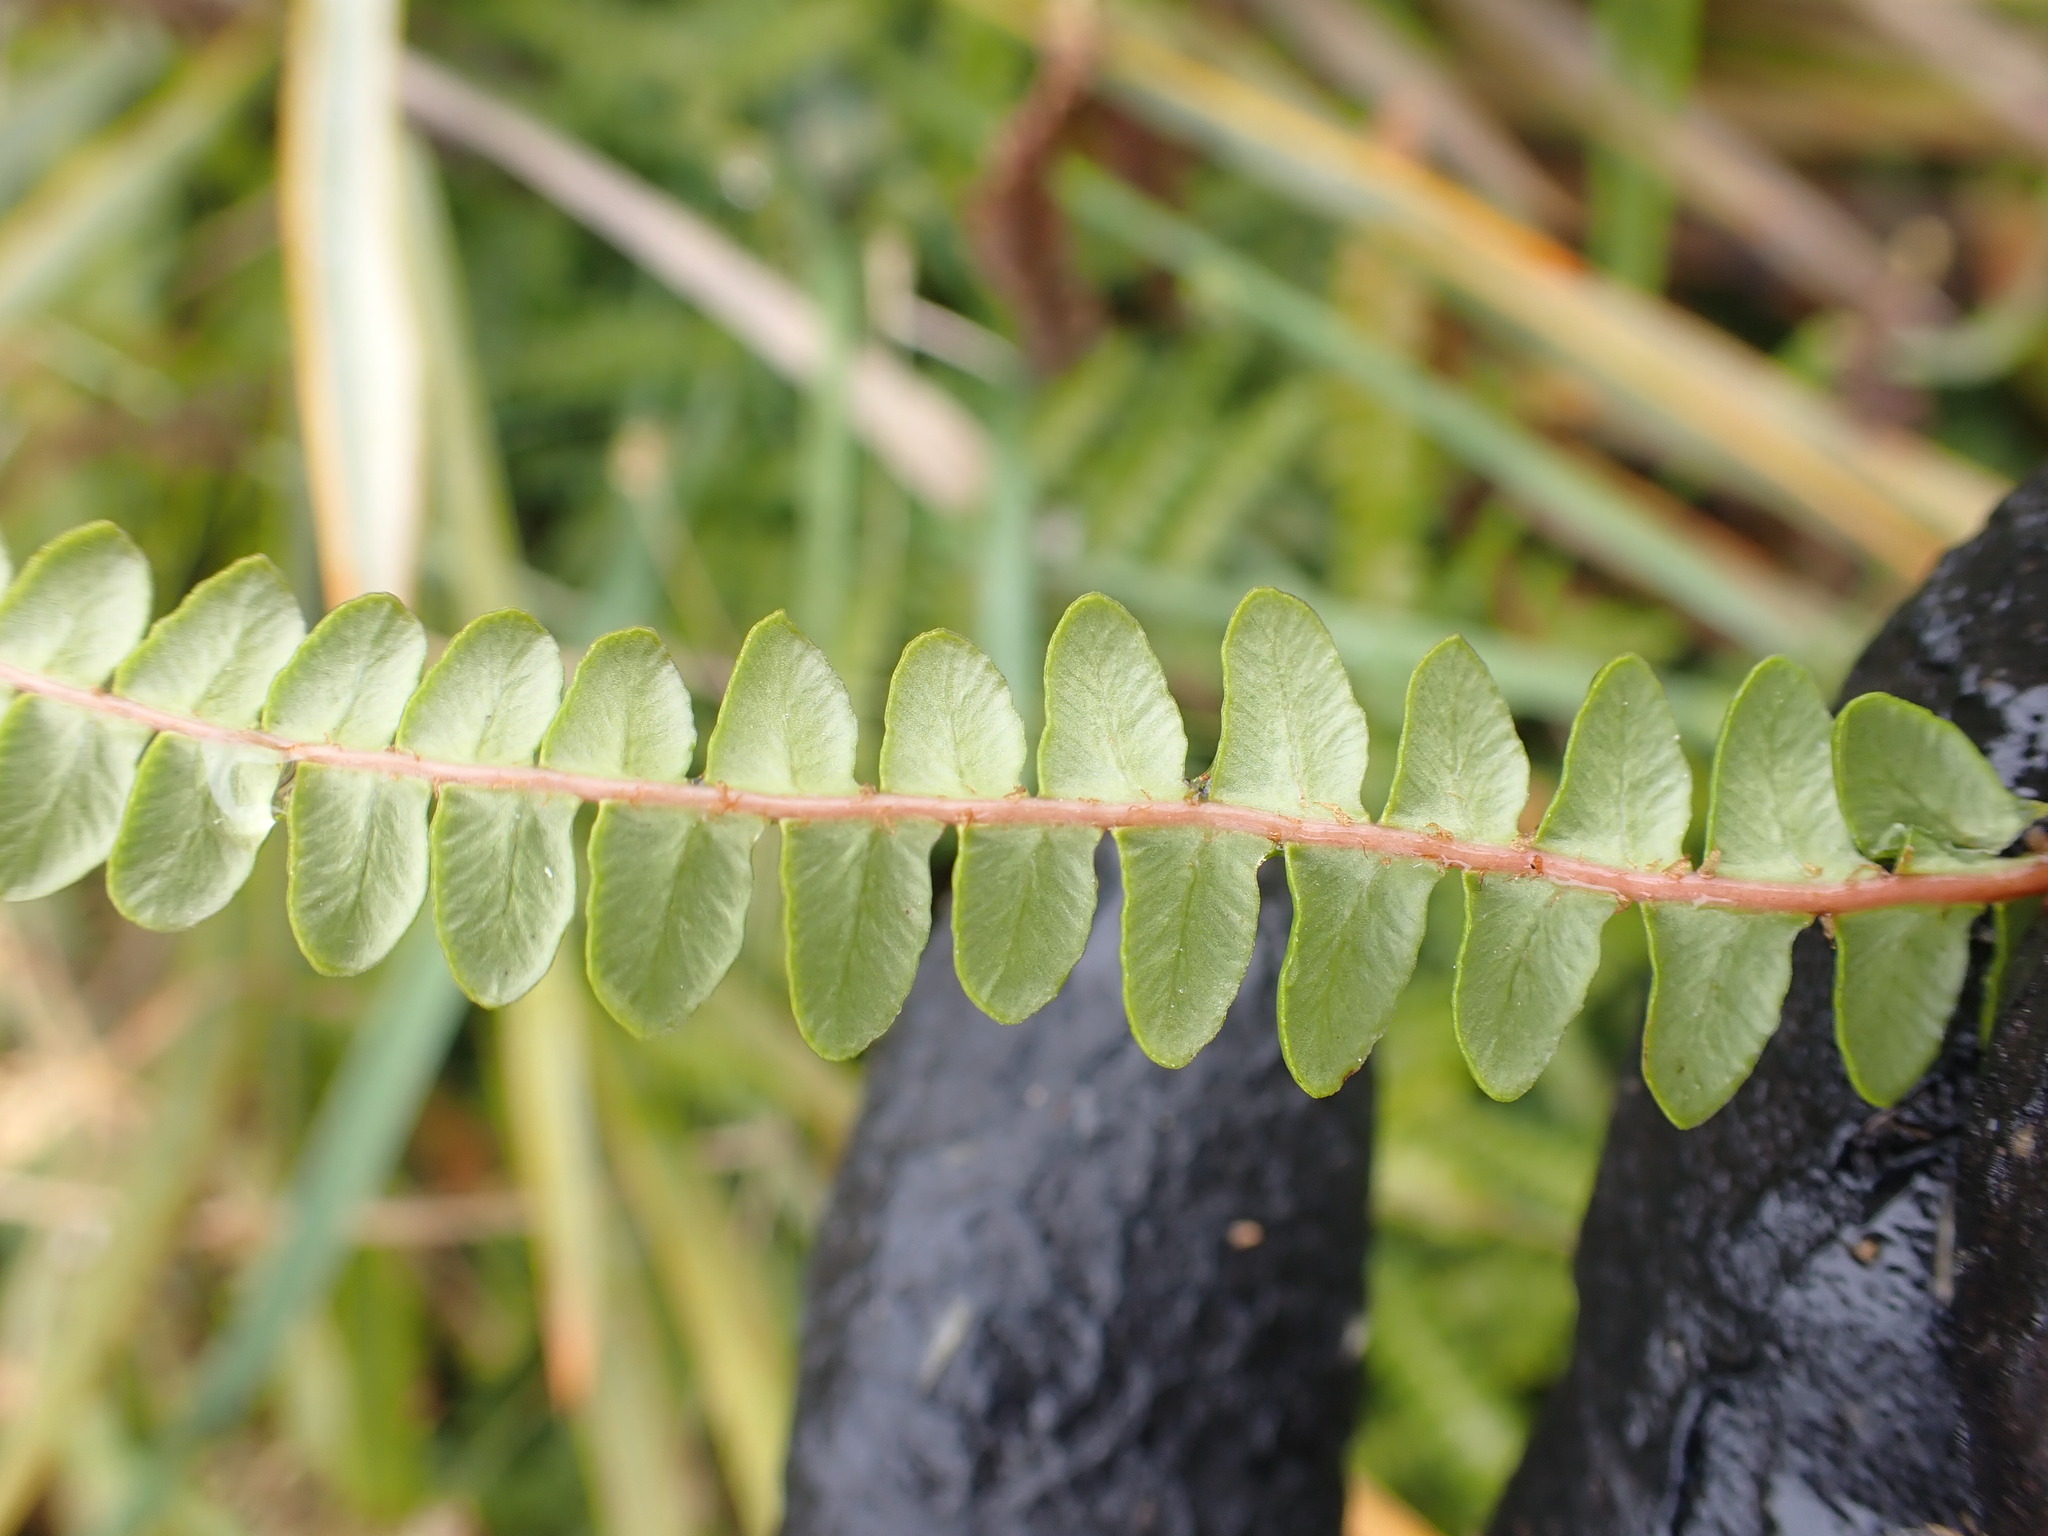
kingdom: Plantae
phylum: Tracheophyta
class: Polypodiopsida
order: Polypodiales
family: Blechnaceae
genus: Austroblechnum
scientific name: Austroblechnum penna-marina
